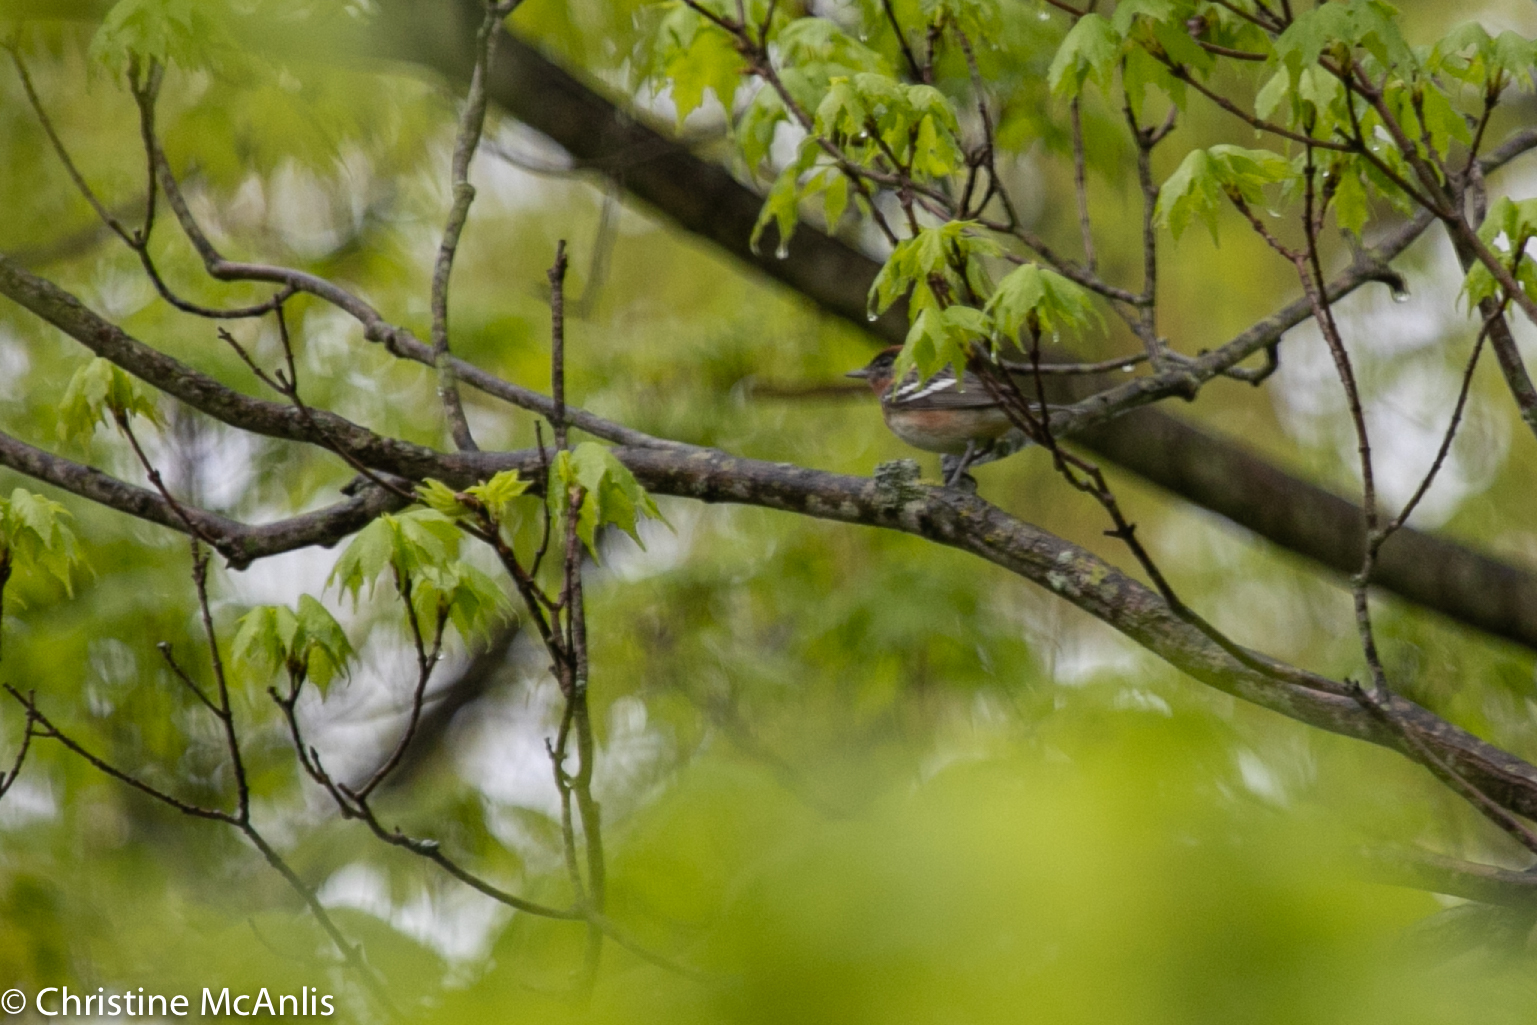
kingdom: Animalia
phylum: Chordata
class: Aves
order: Passeriformes
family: Parulidae
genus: Setophaga
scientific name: Setophaga castanea
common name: Bay-breasted warbler
